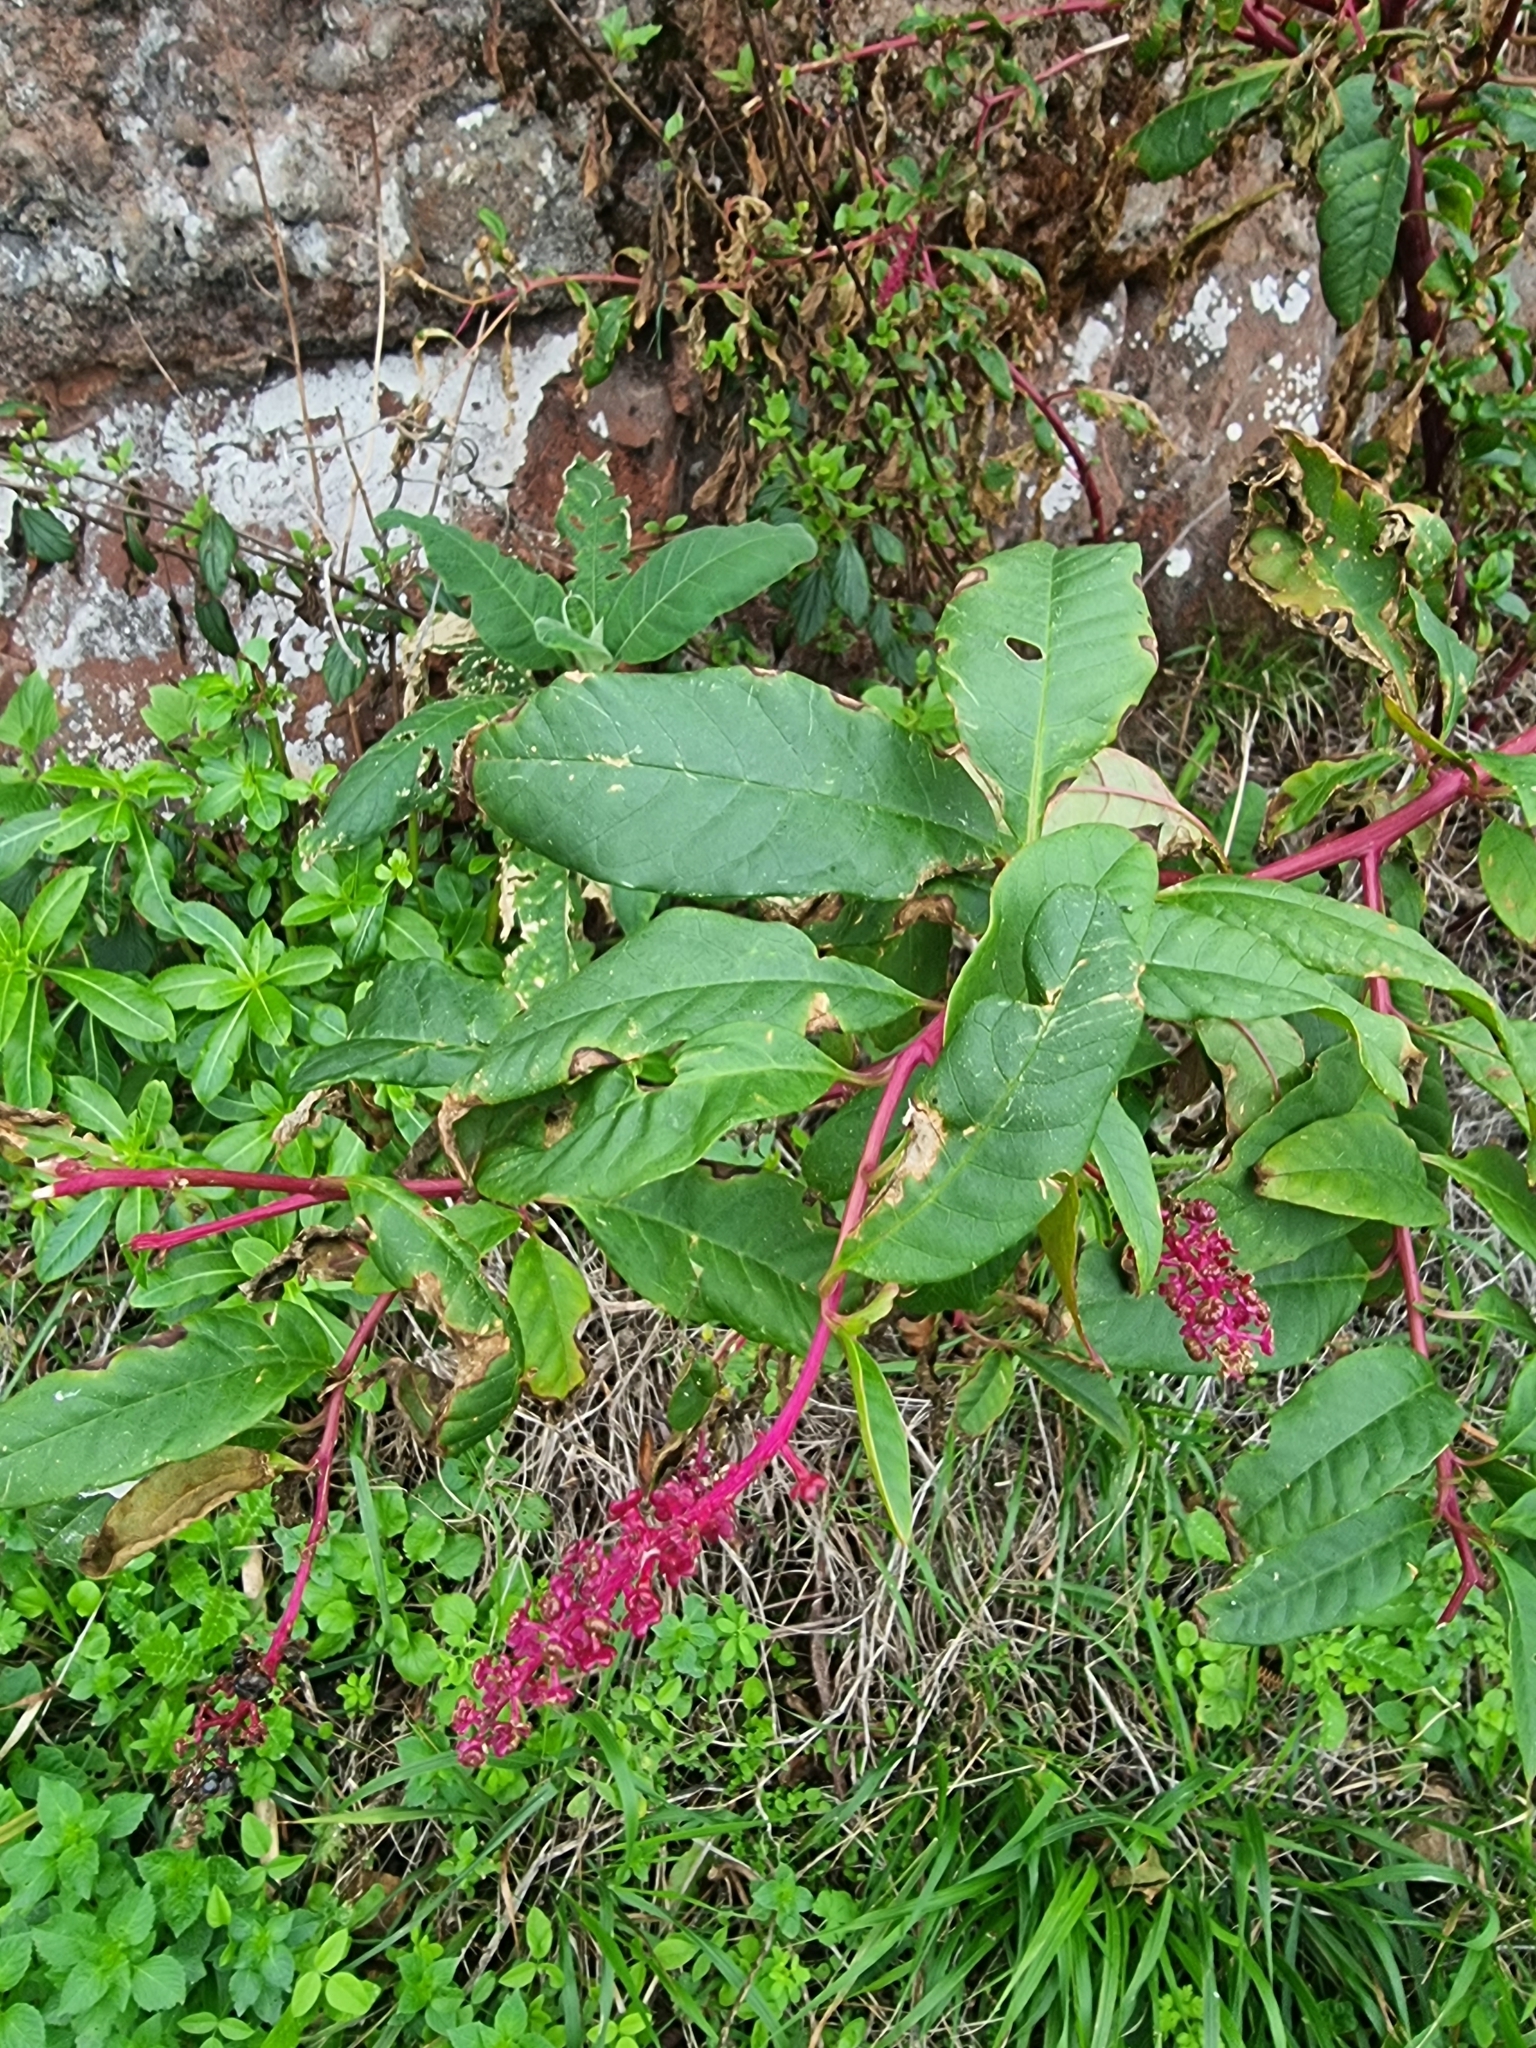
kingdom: Plantae
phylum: Tracheophyta
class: Magnoliopsida
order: Caryophyllales
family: Phytolaccaceae
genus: Phytolacca
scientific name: Phytolacca americana
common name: American pokeweed
